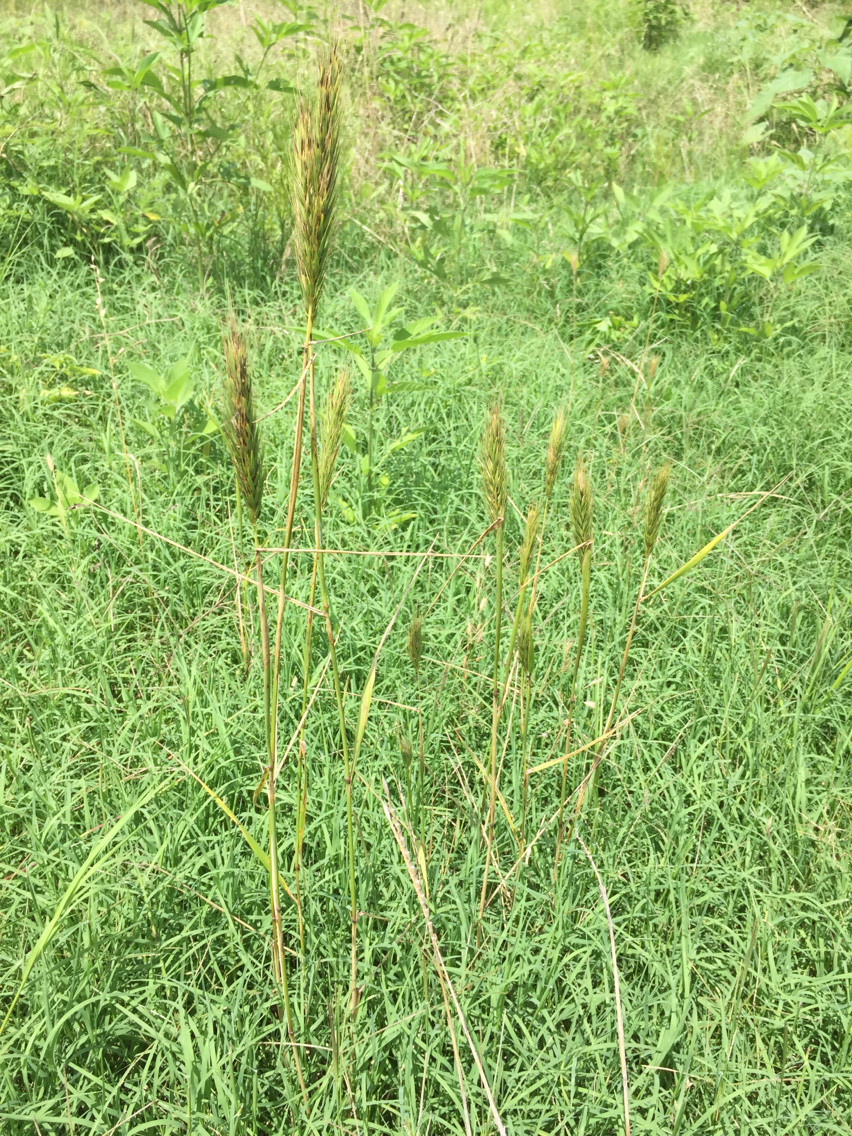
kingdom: Plantae
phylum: Tracheophyta
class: Liliopsida
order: Poales
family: Poaceae
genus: Elymus
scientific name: Elymus virginicus
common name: Common eastern wildrye
